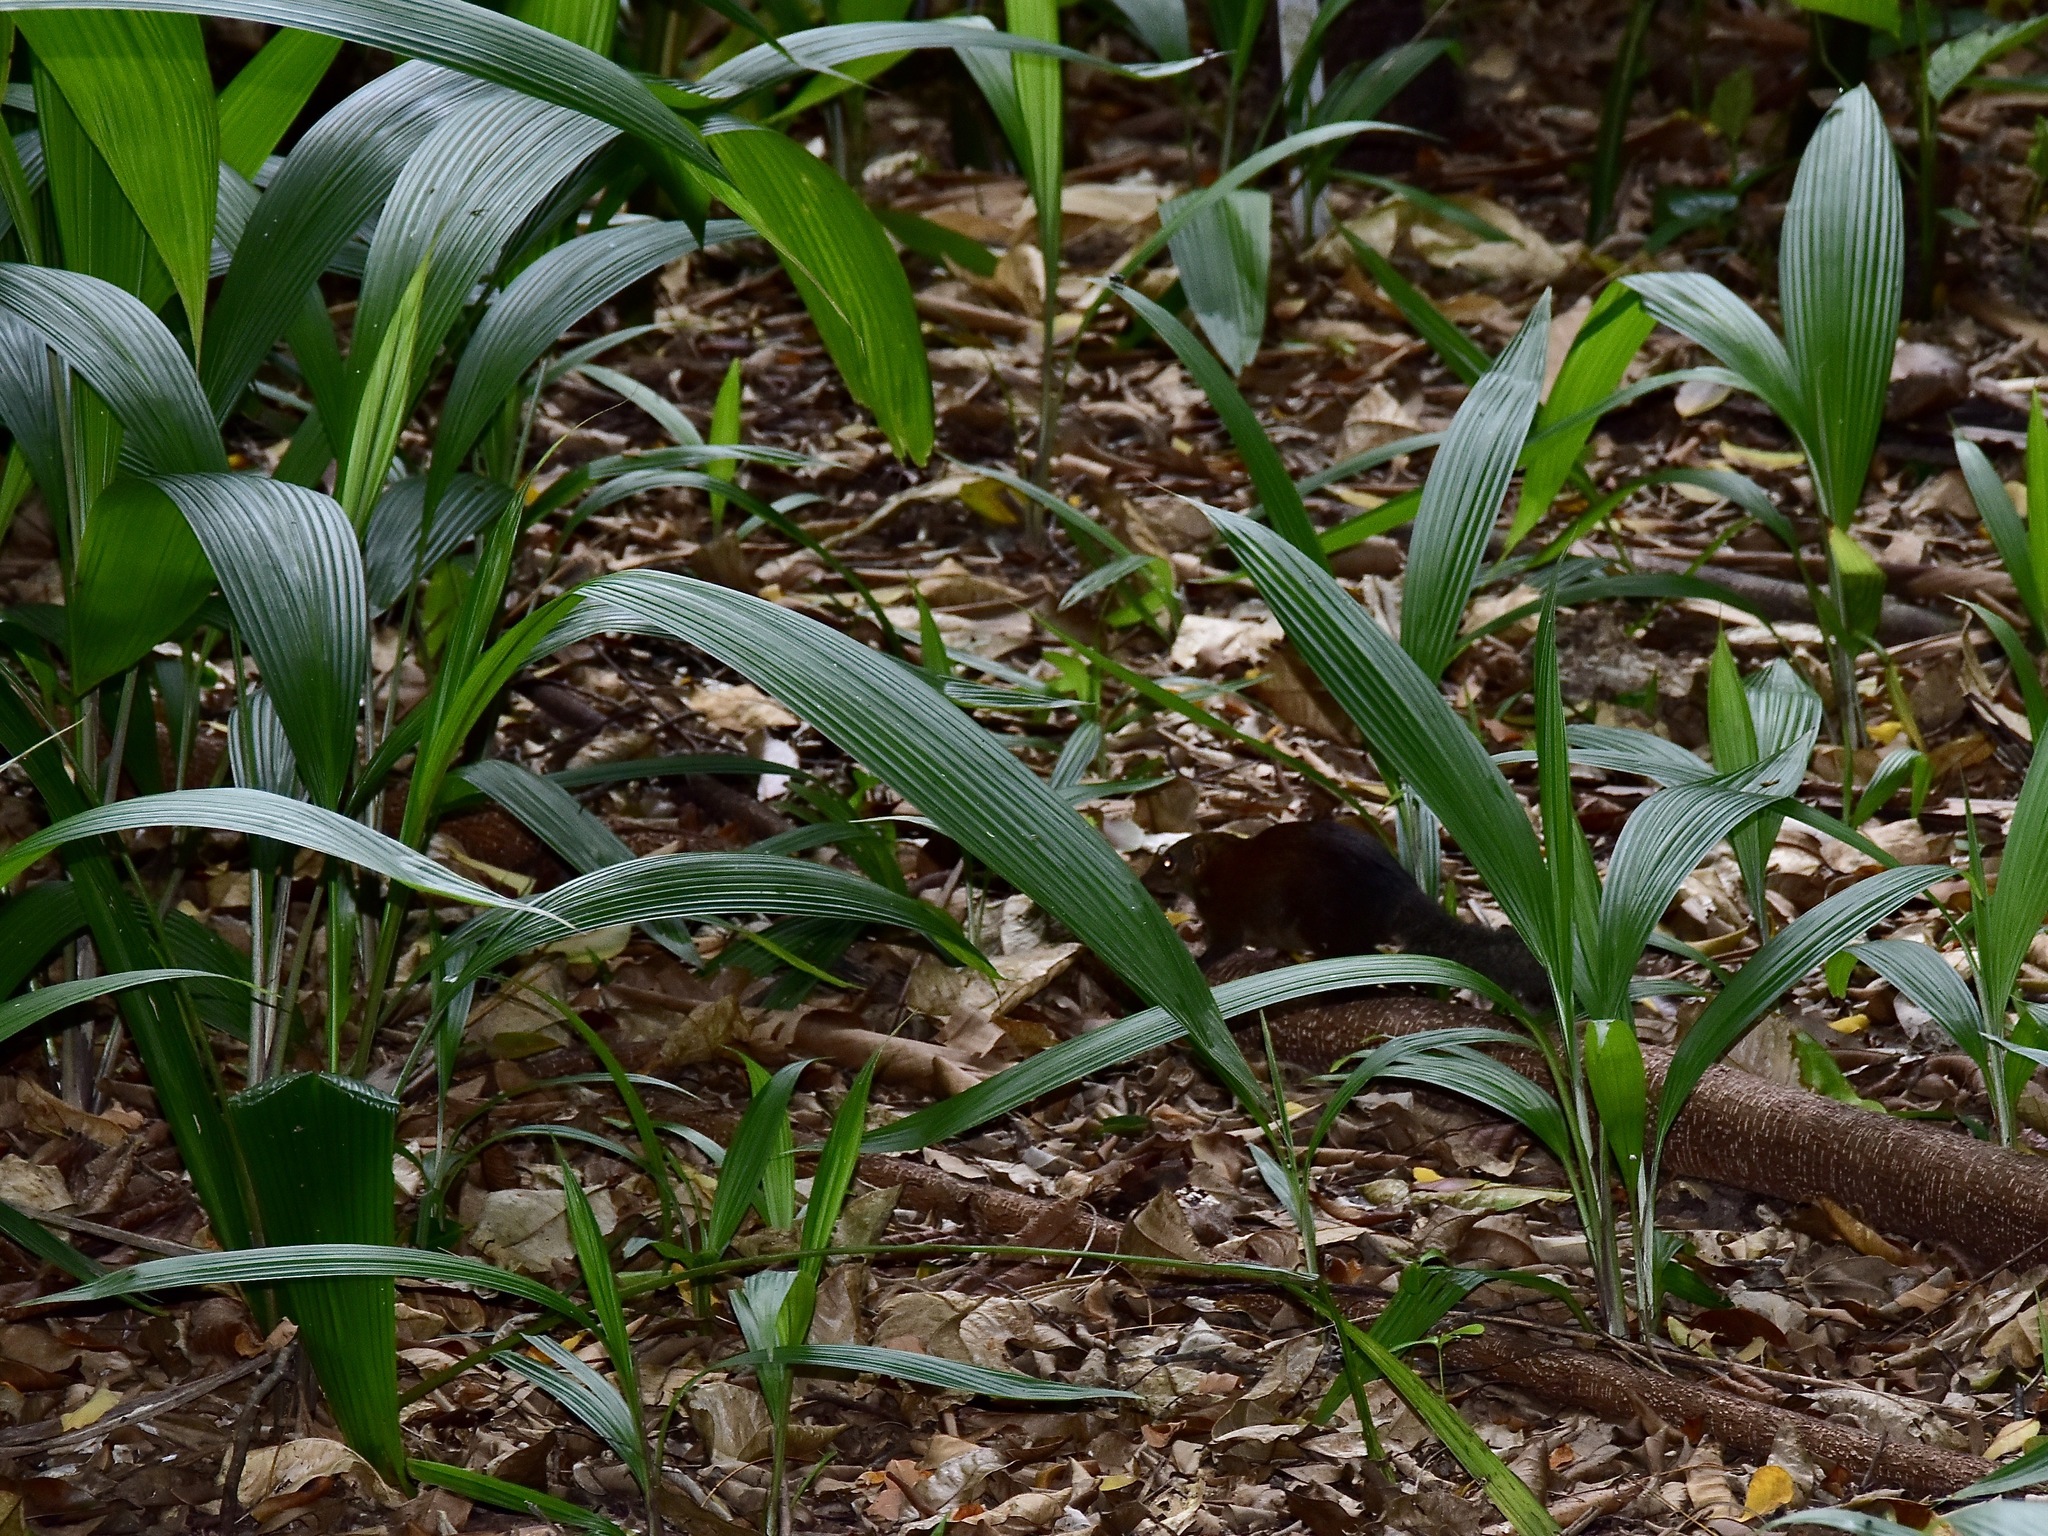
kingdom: Animalia
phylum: Chordata
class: Mammalia
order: Scandentia
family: Tupaiidae
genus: Tupaia
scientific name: Tupaia glis
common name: Common treeshrew
